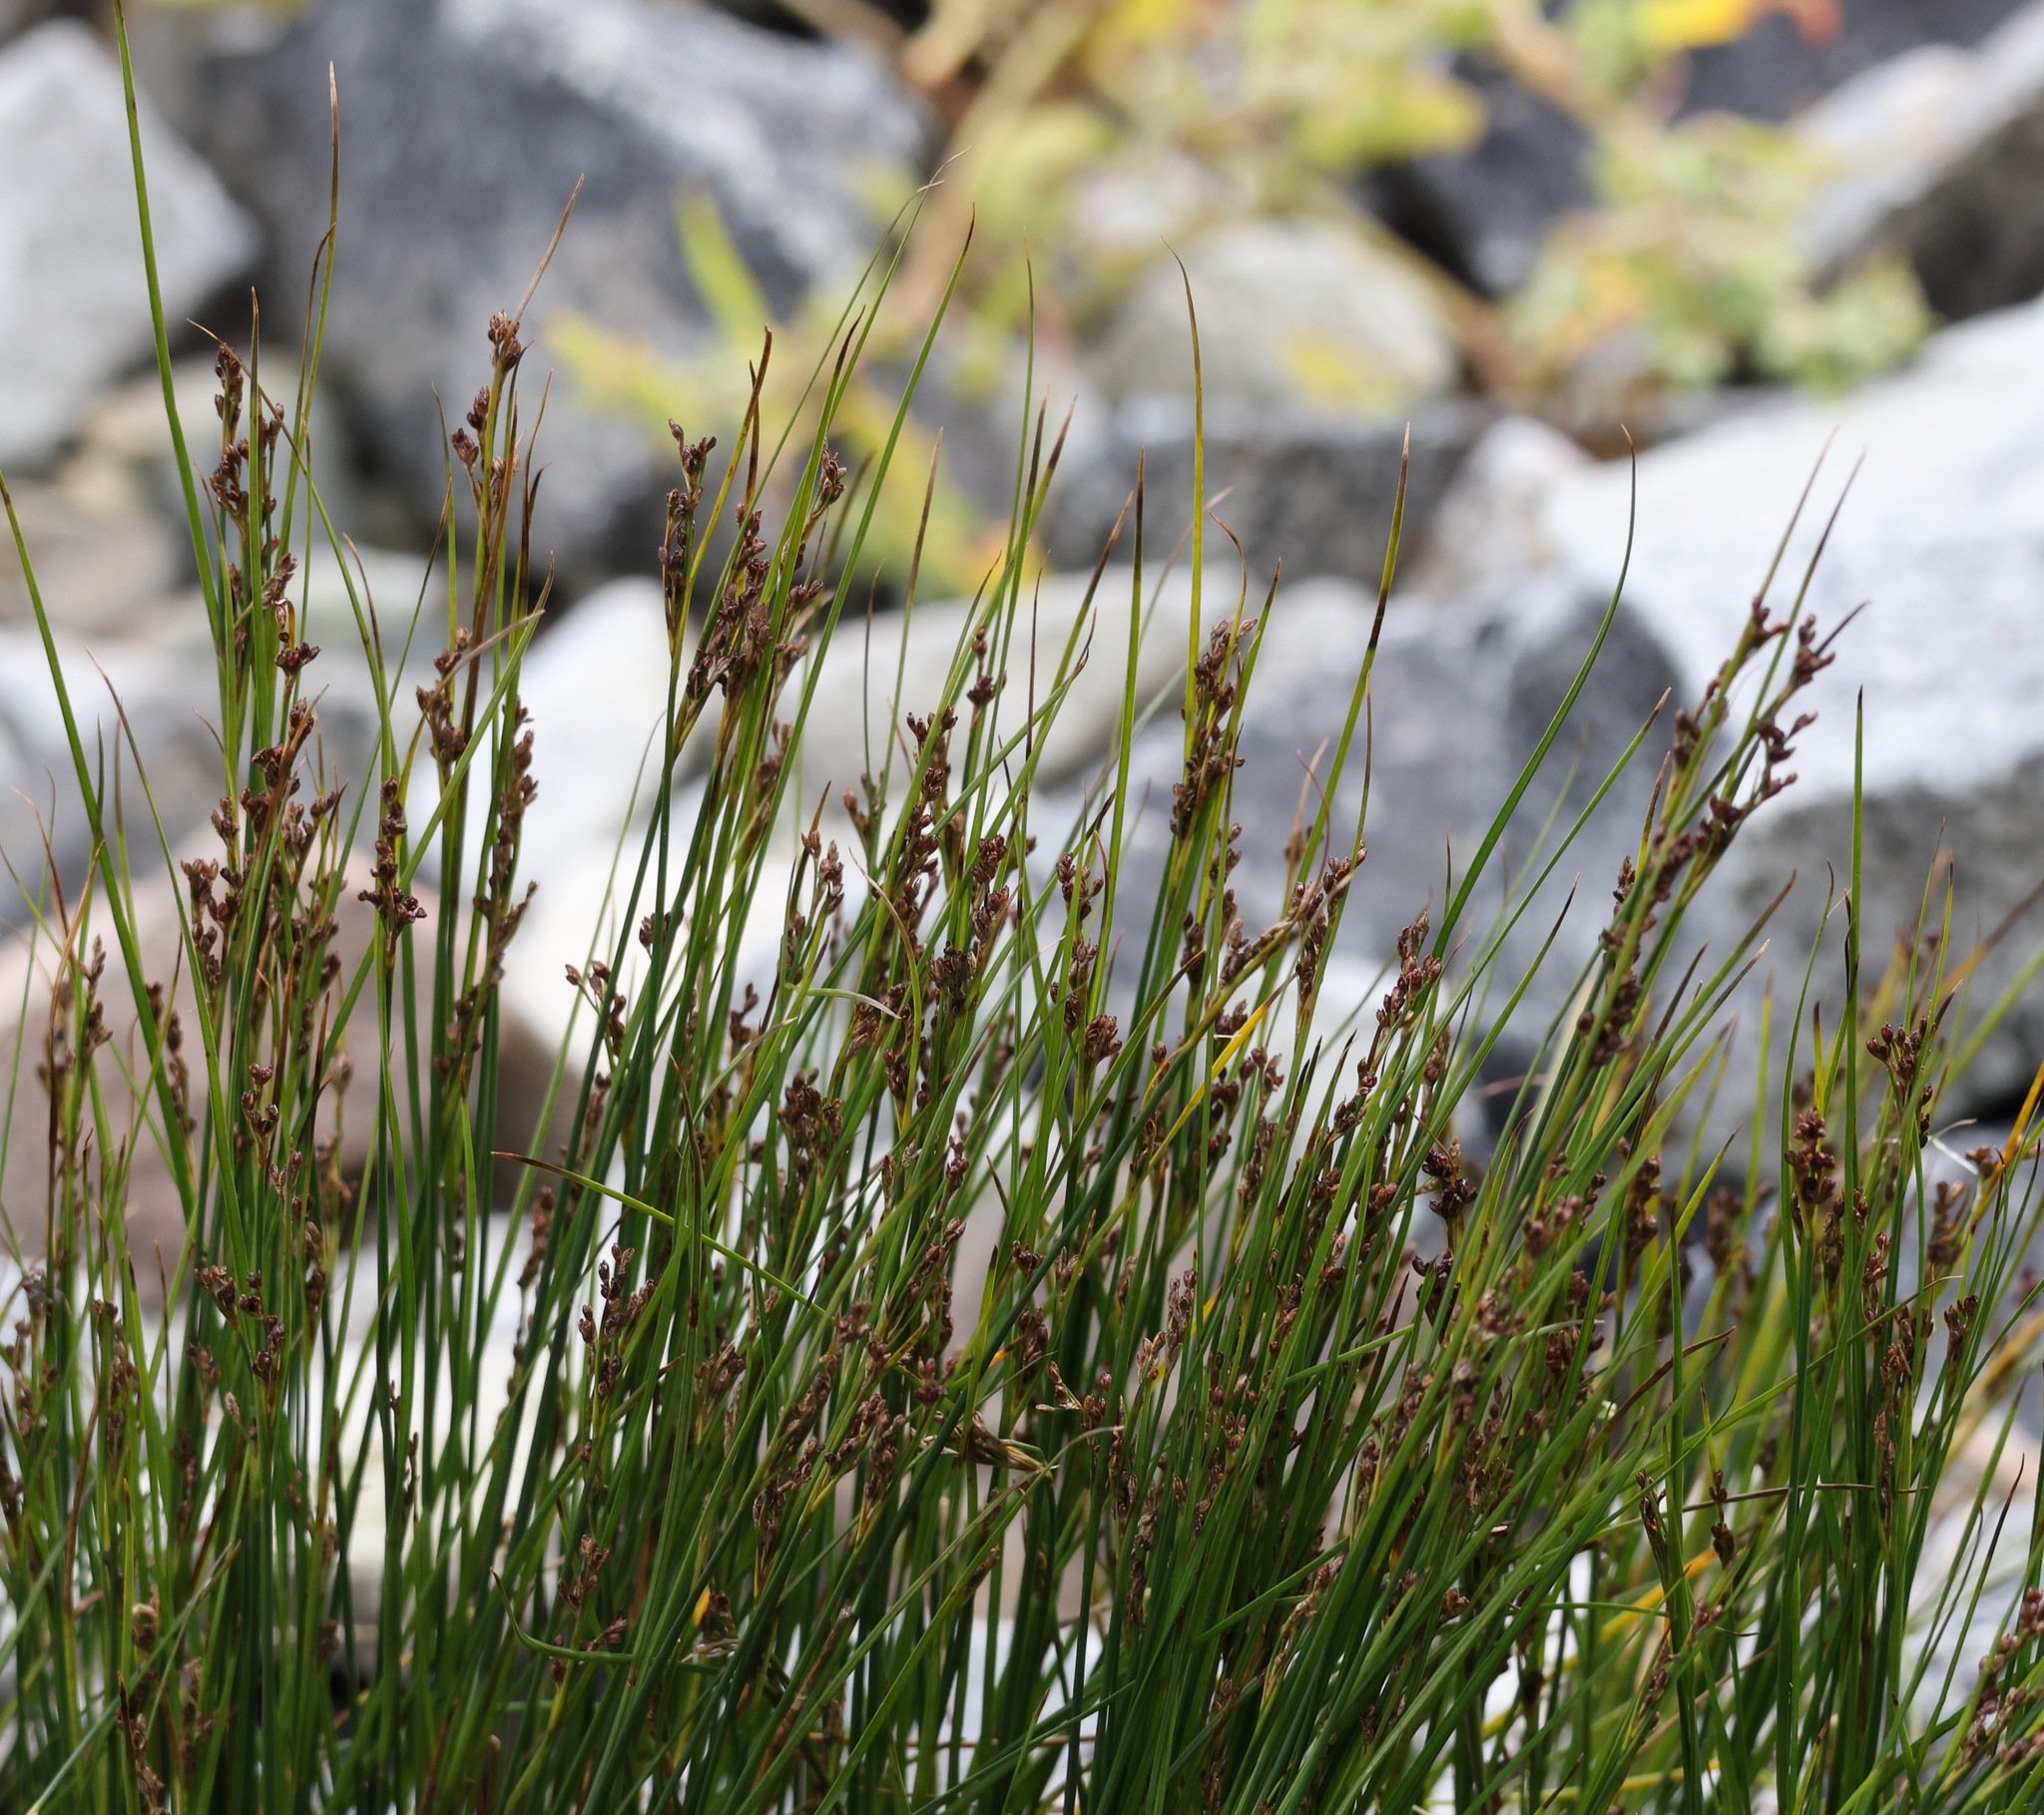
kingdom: Plantae
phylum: Tracheophyta
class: Liliopsida
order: Poales
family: Juncaceae
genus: Juncus
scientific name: Juncus gerardi
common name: Saltmarsh rush
